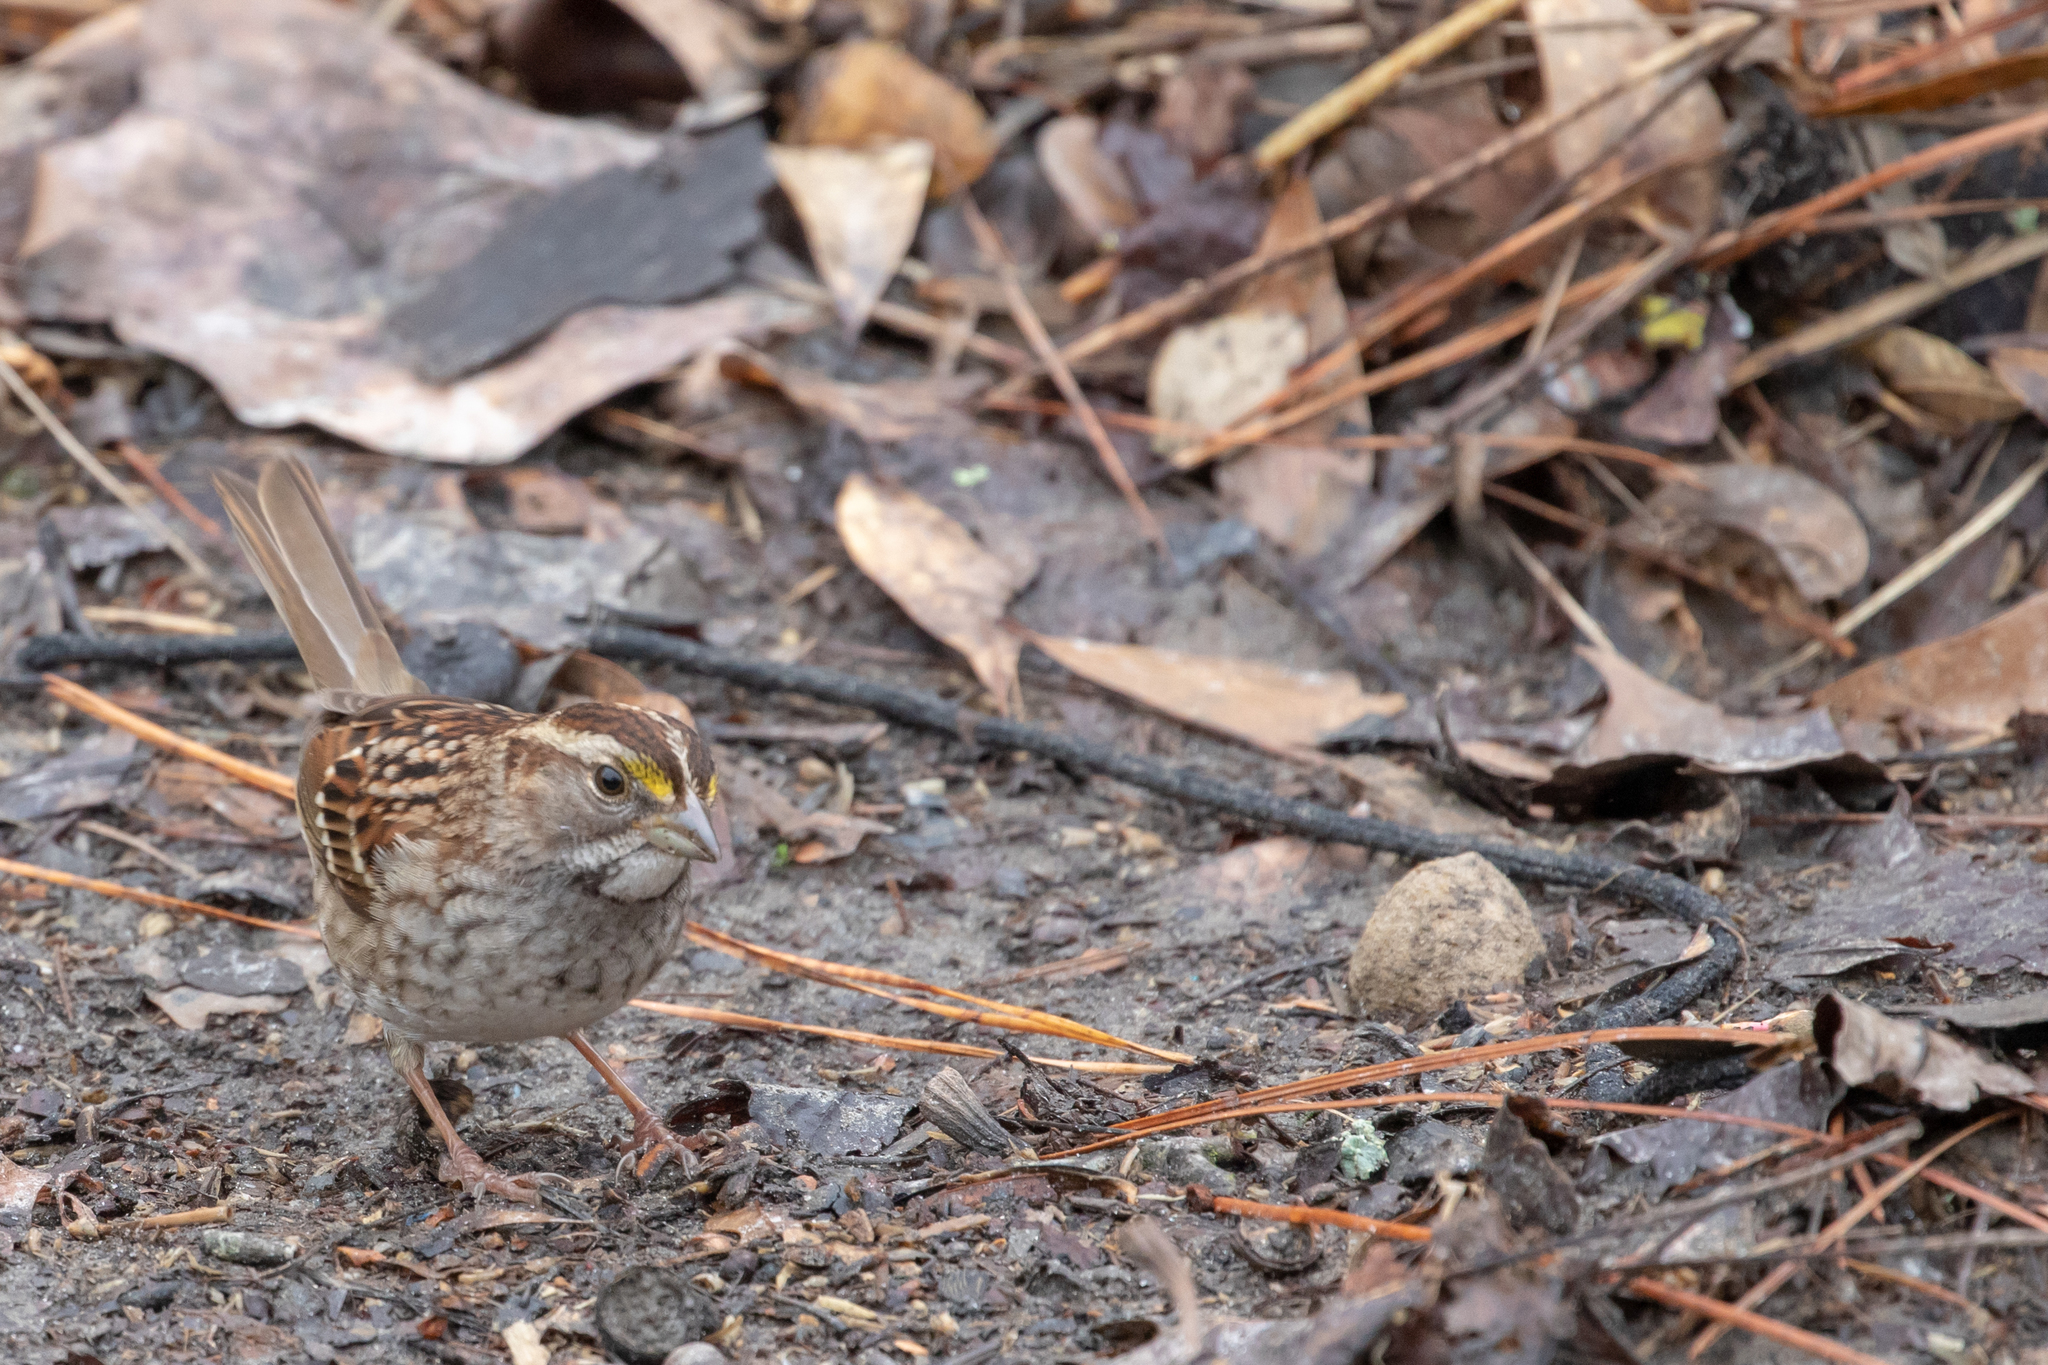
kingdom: Animalia
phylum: Chordata
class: Aves
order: Passeriformes
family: Passerellidae
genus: Zonotrichia
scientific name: Zonotrichia albicollis
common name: White-throated sparrow
